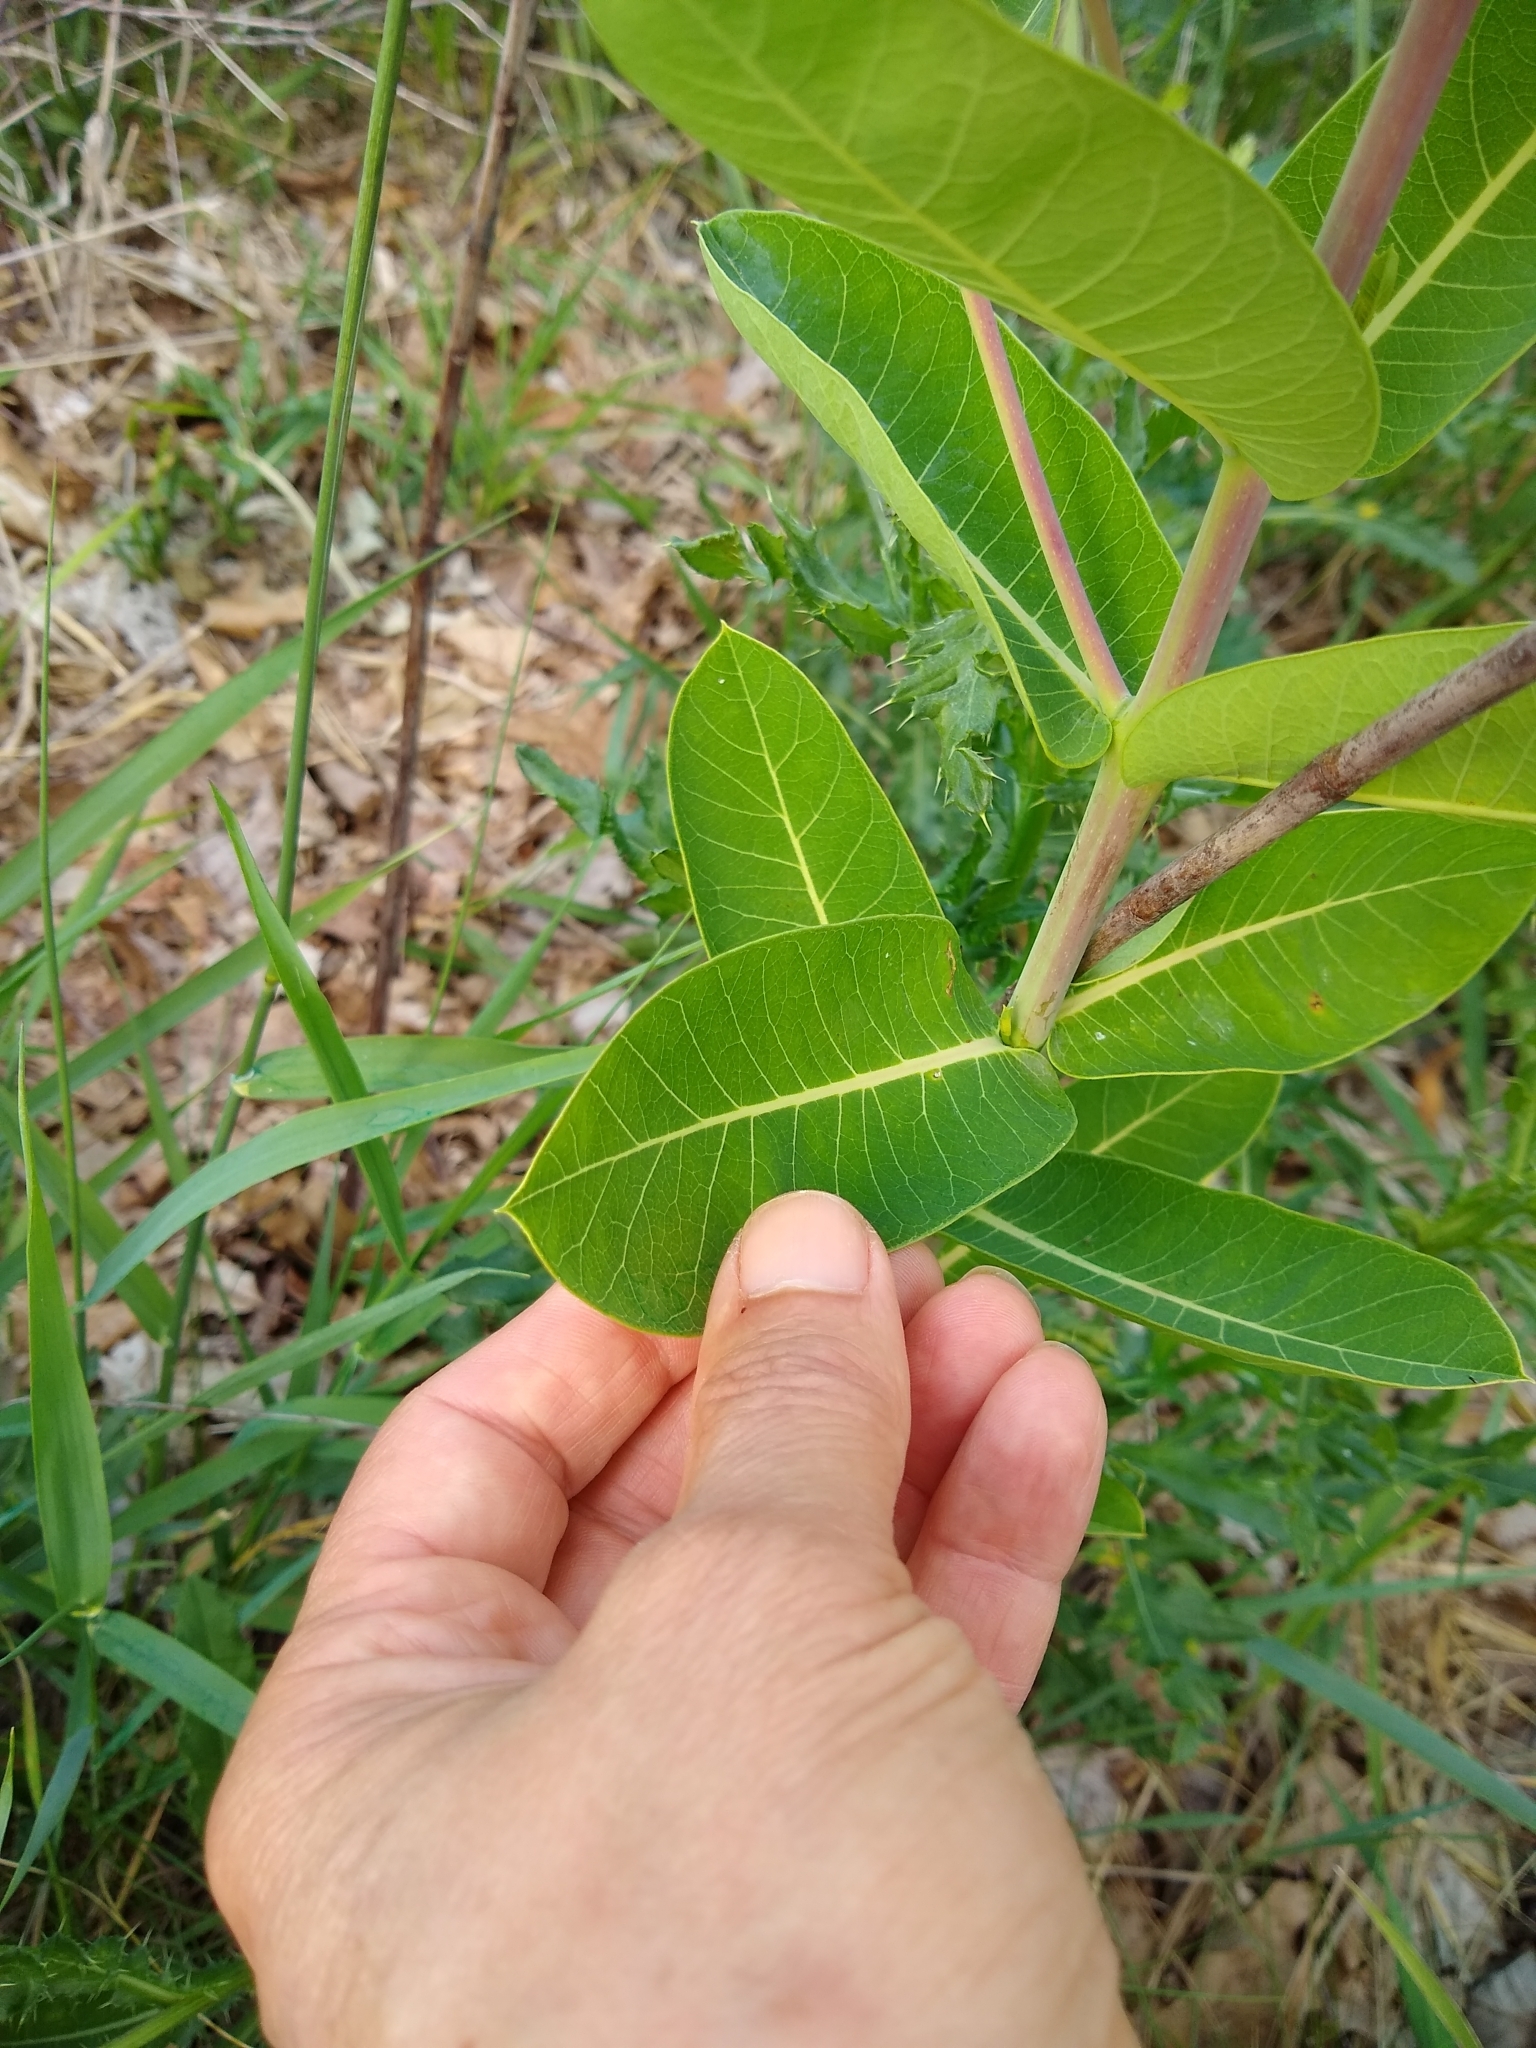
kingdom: Plantae
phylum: Tracheophyta
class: Magnoliopsida
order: Gentianales
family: Apocynaceae
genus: Apocynum
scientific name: Apocynum cannabinum
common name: Hemp dogbane
